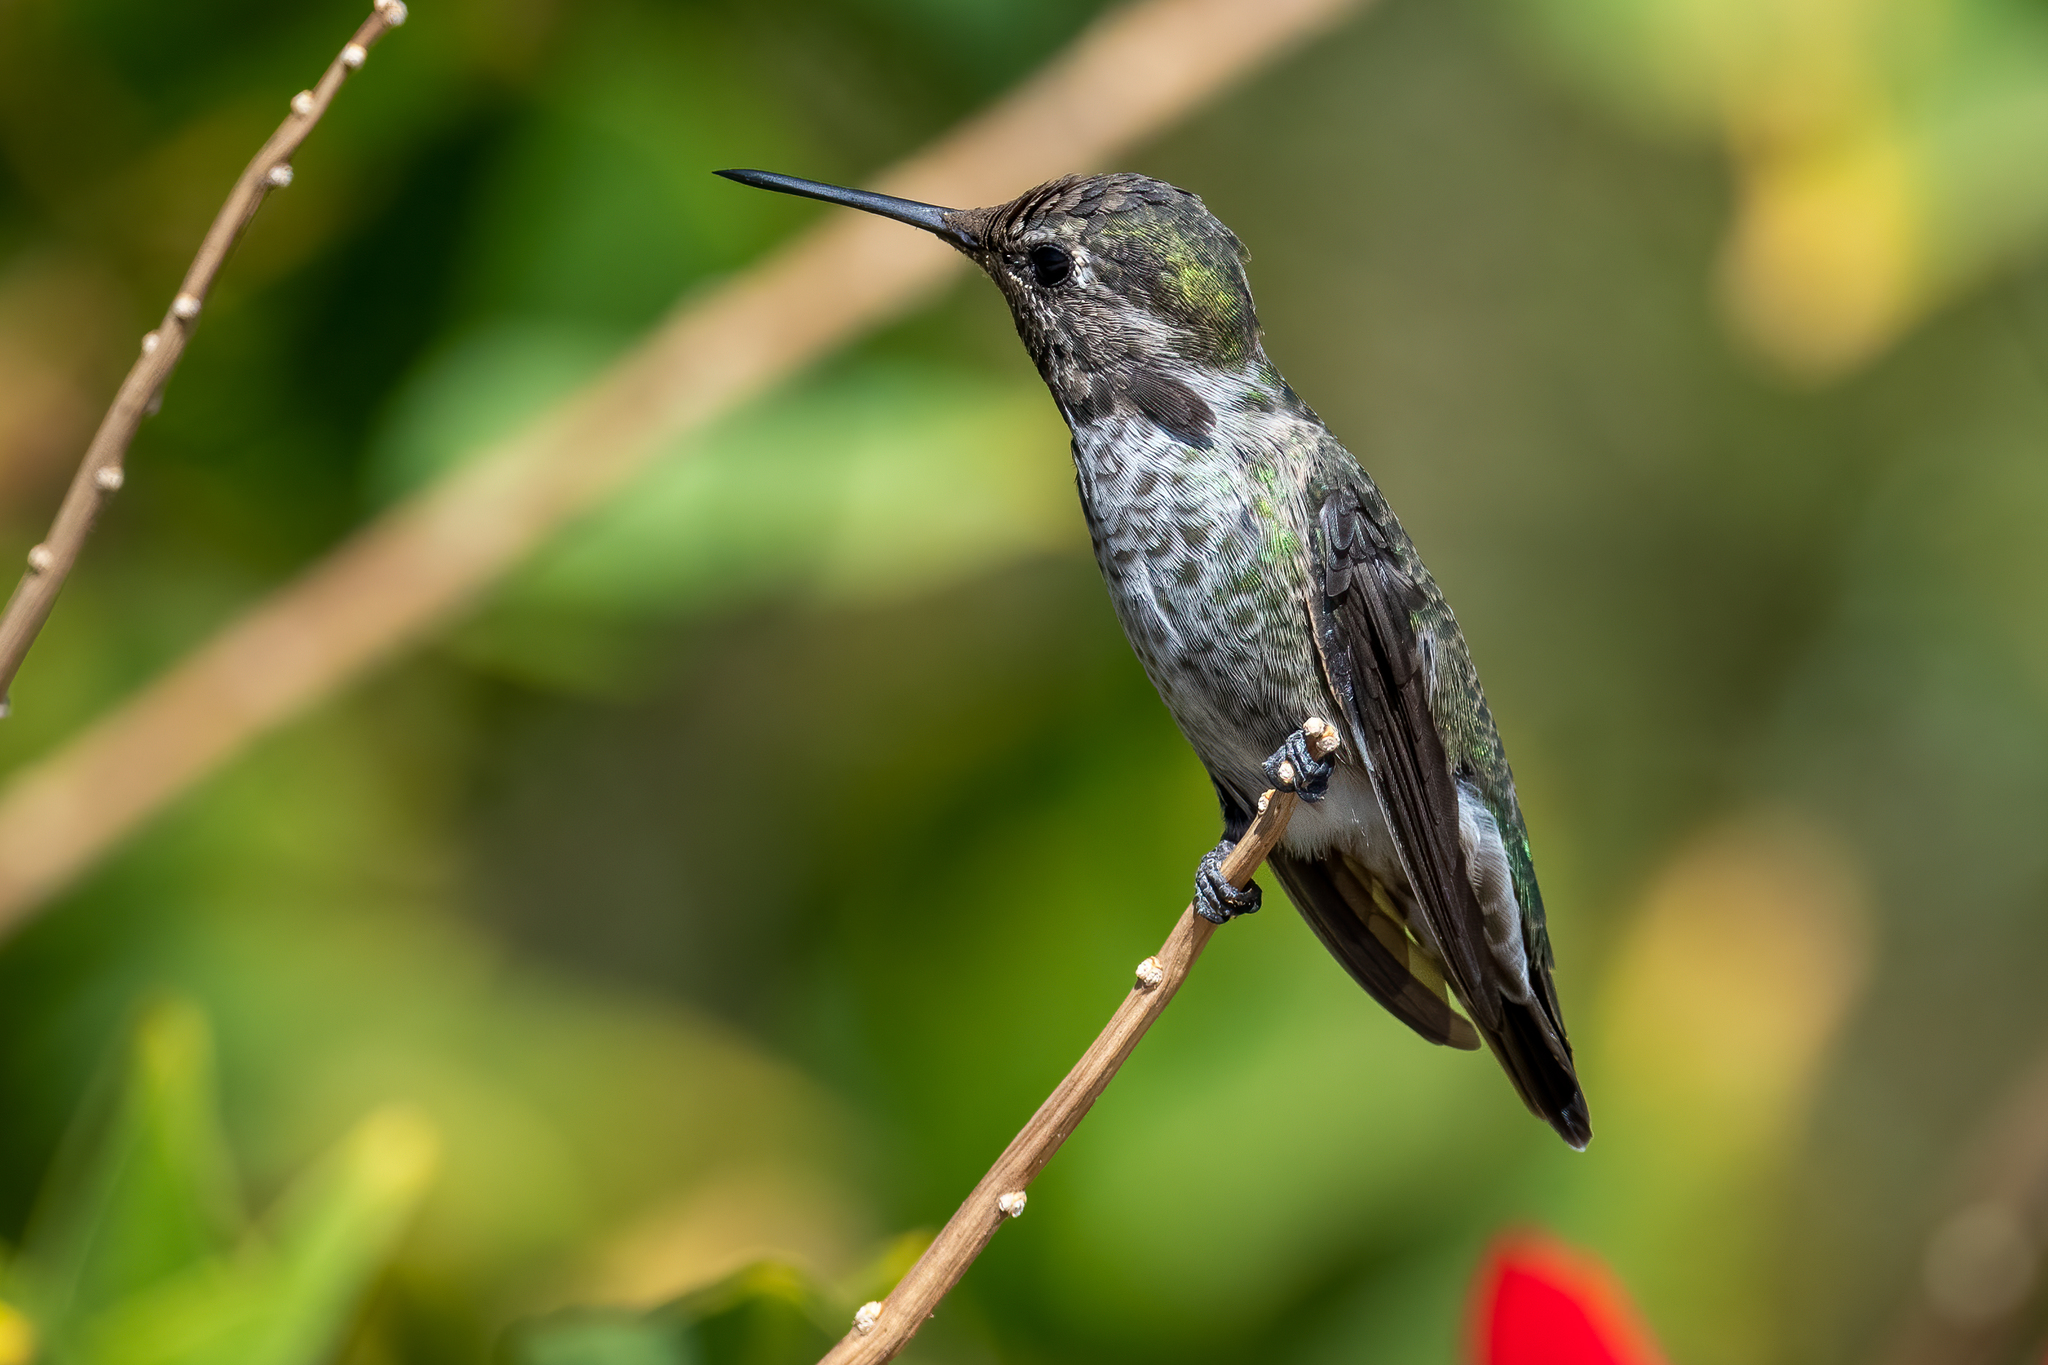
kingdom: Animalia
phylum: Chordata
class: Aves
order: Apodiformes
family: Trochilidae
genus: Calypte
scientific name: Calypte anna
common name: Anna's hummingbird
